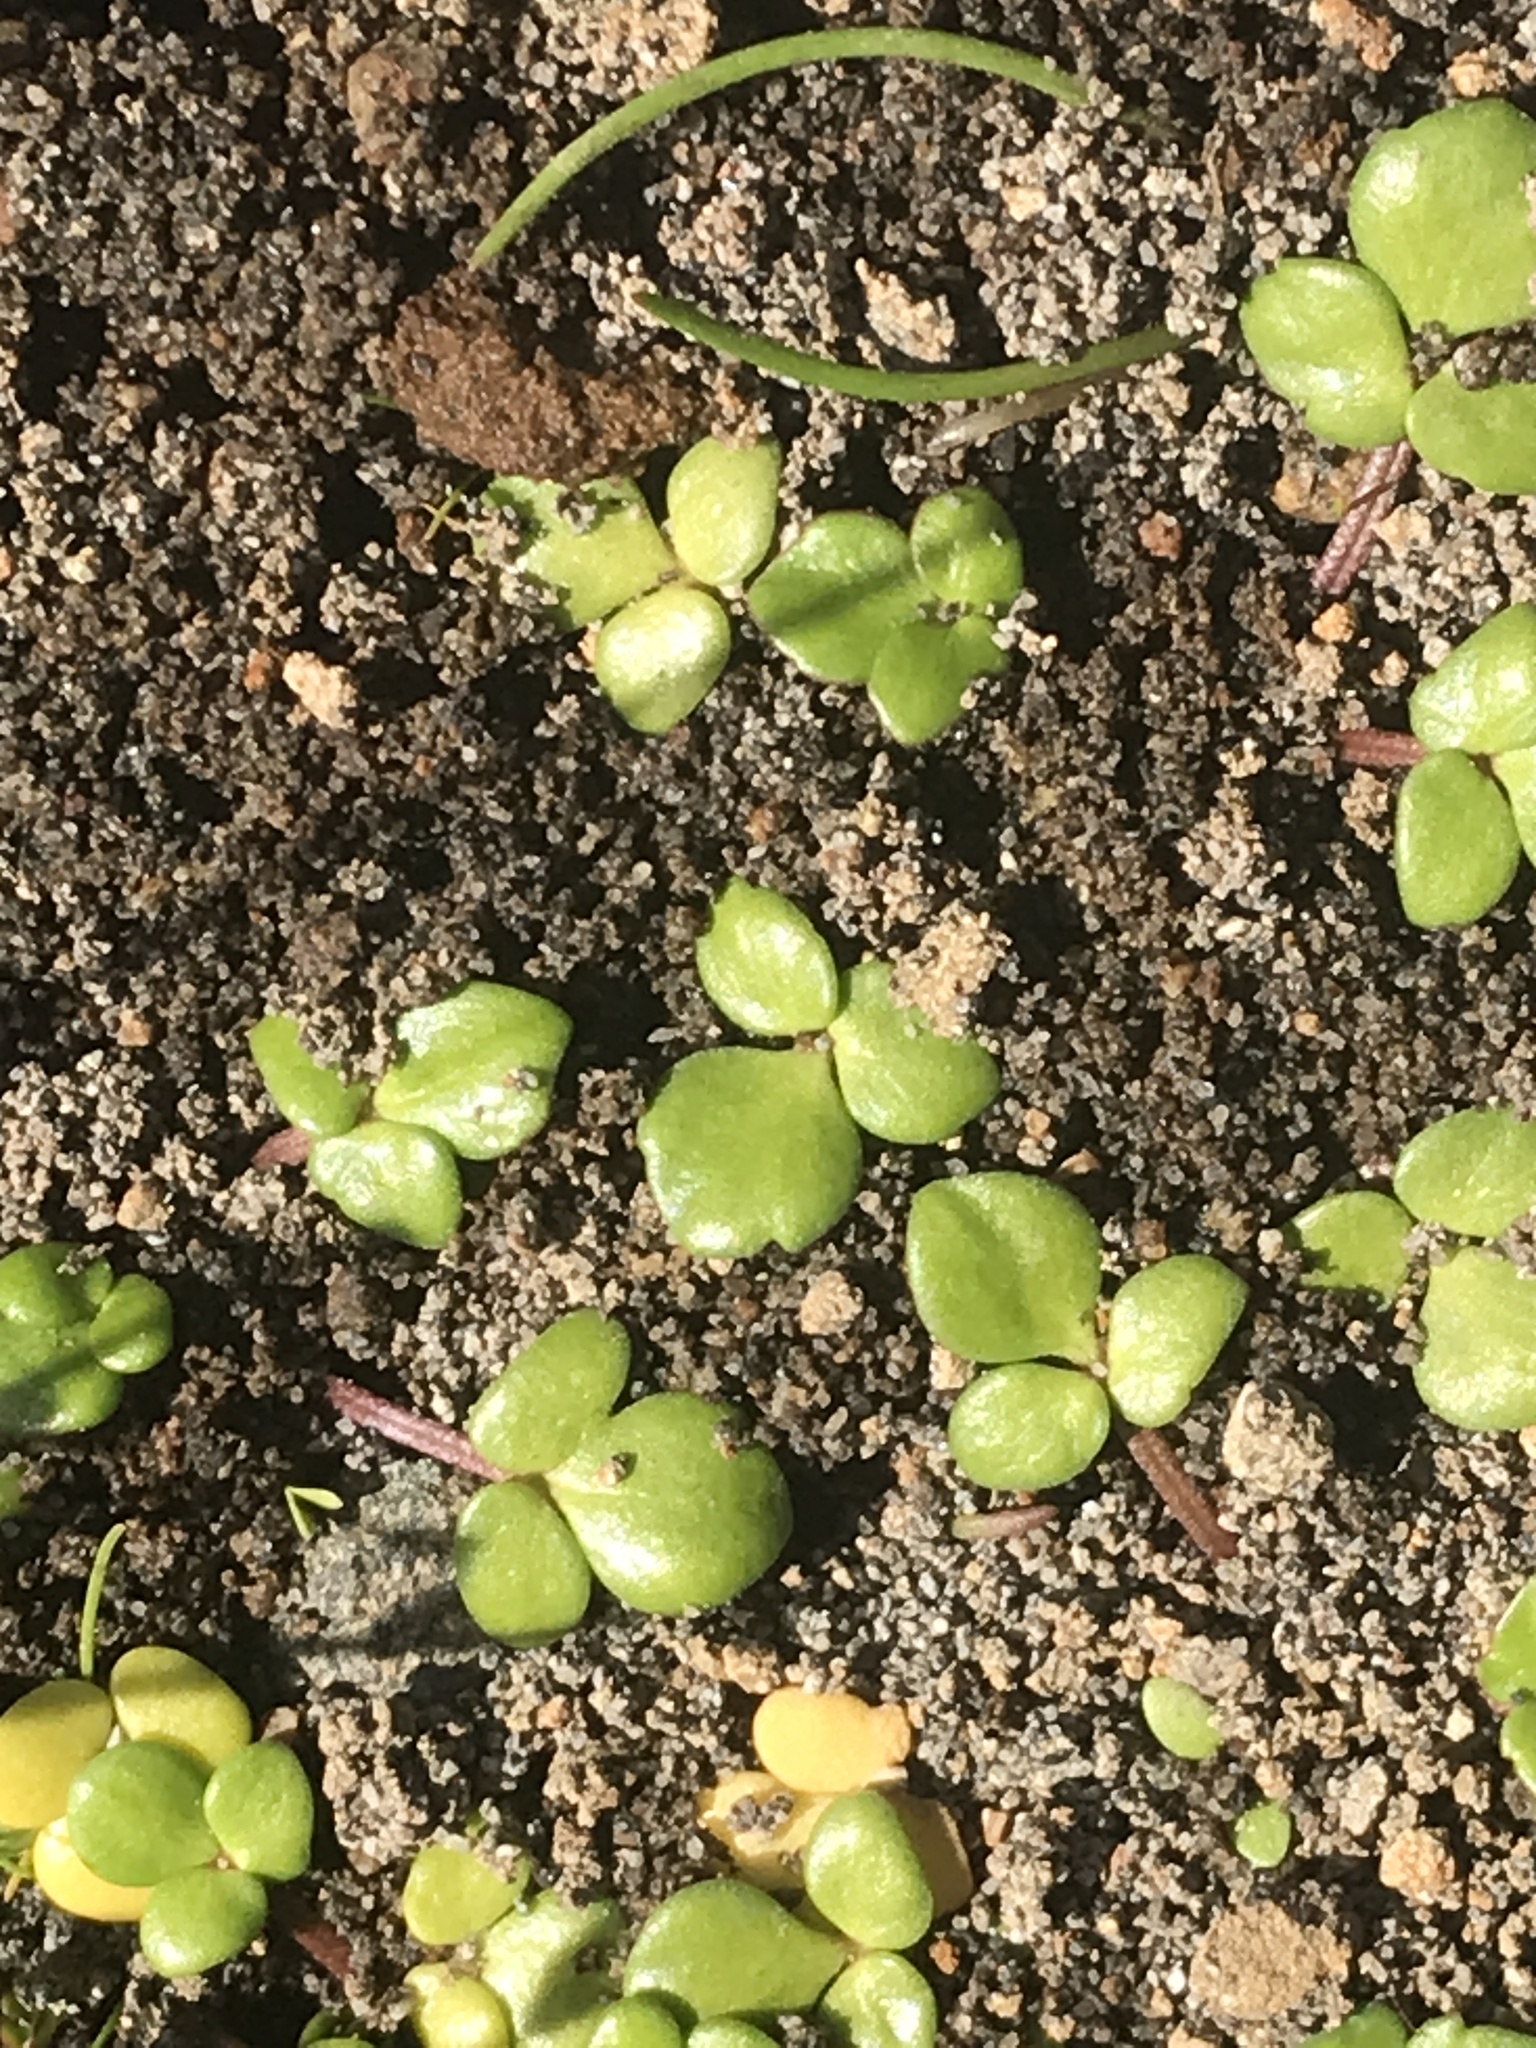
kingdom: Plantae
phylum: Tracheophyta
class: Magnoliopsida
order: Ranunculales
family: Ranunculaceae
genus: Ranunculus
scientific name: Ranunculus acaulis
